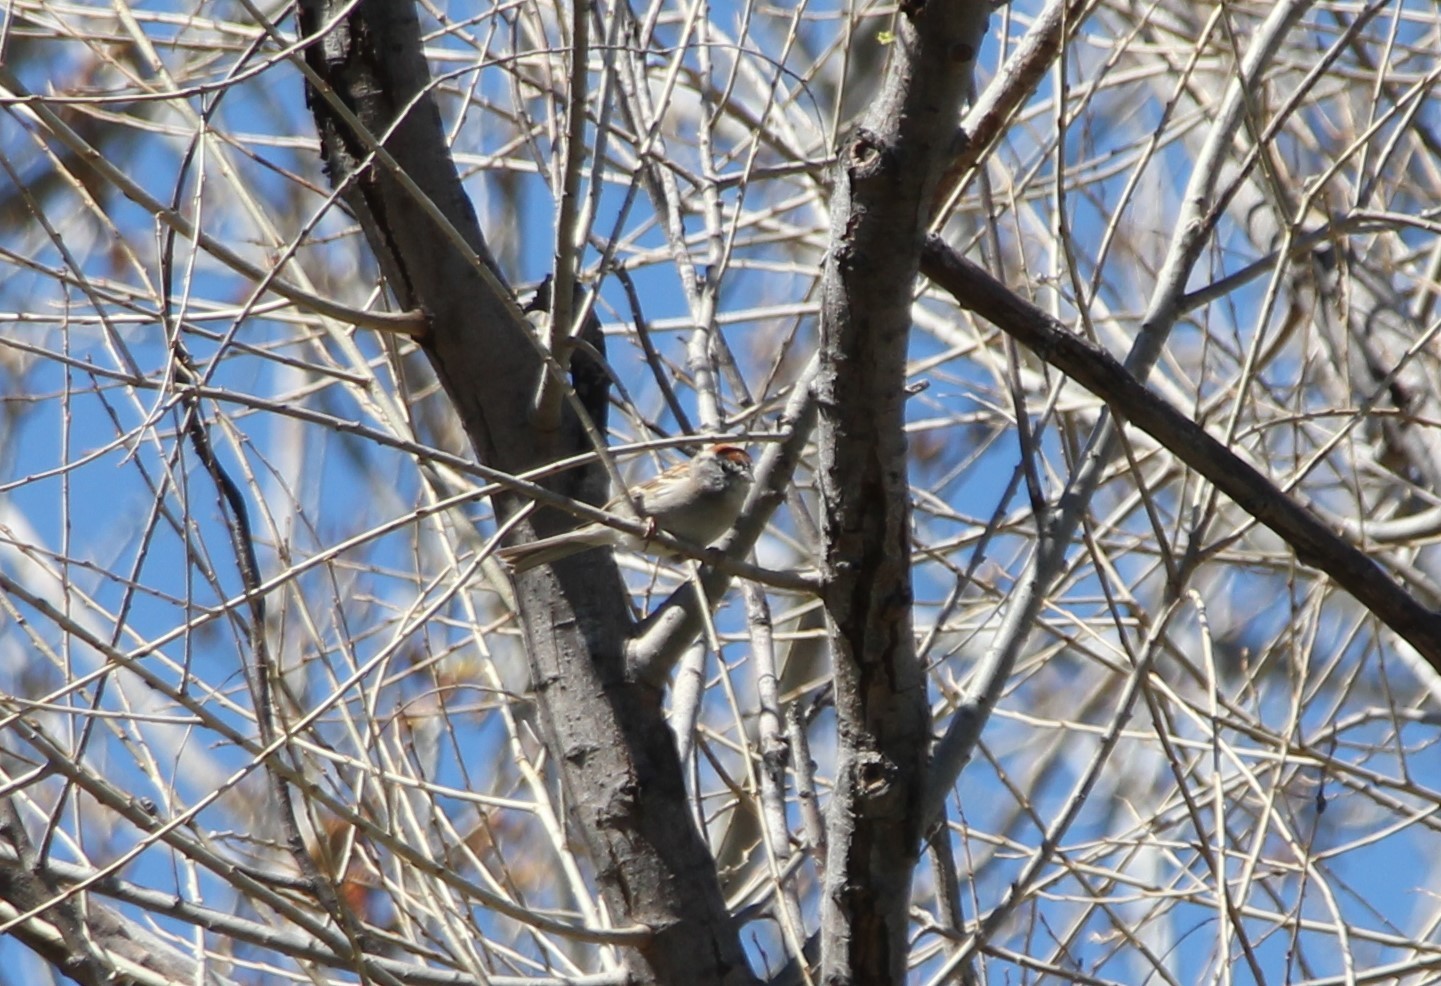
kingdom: Animalia
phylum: Chordata
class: Aves
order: Passeriformes
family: Passerellidae
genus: Spizella
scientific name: Spizella passerina
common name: Chipping sparrow
